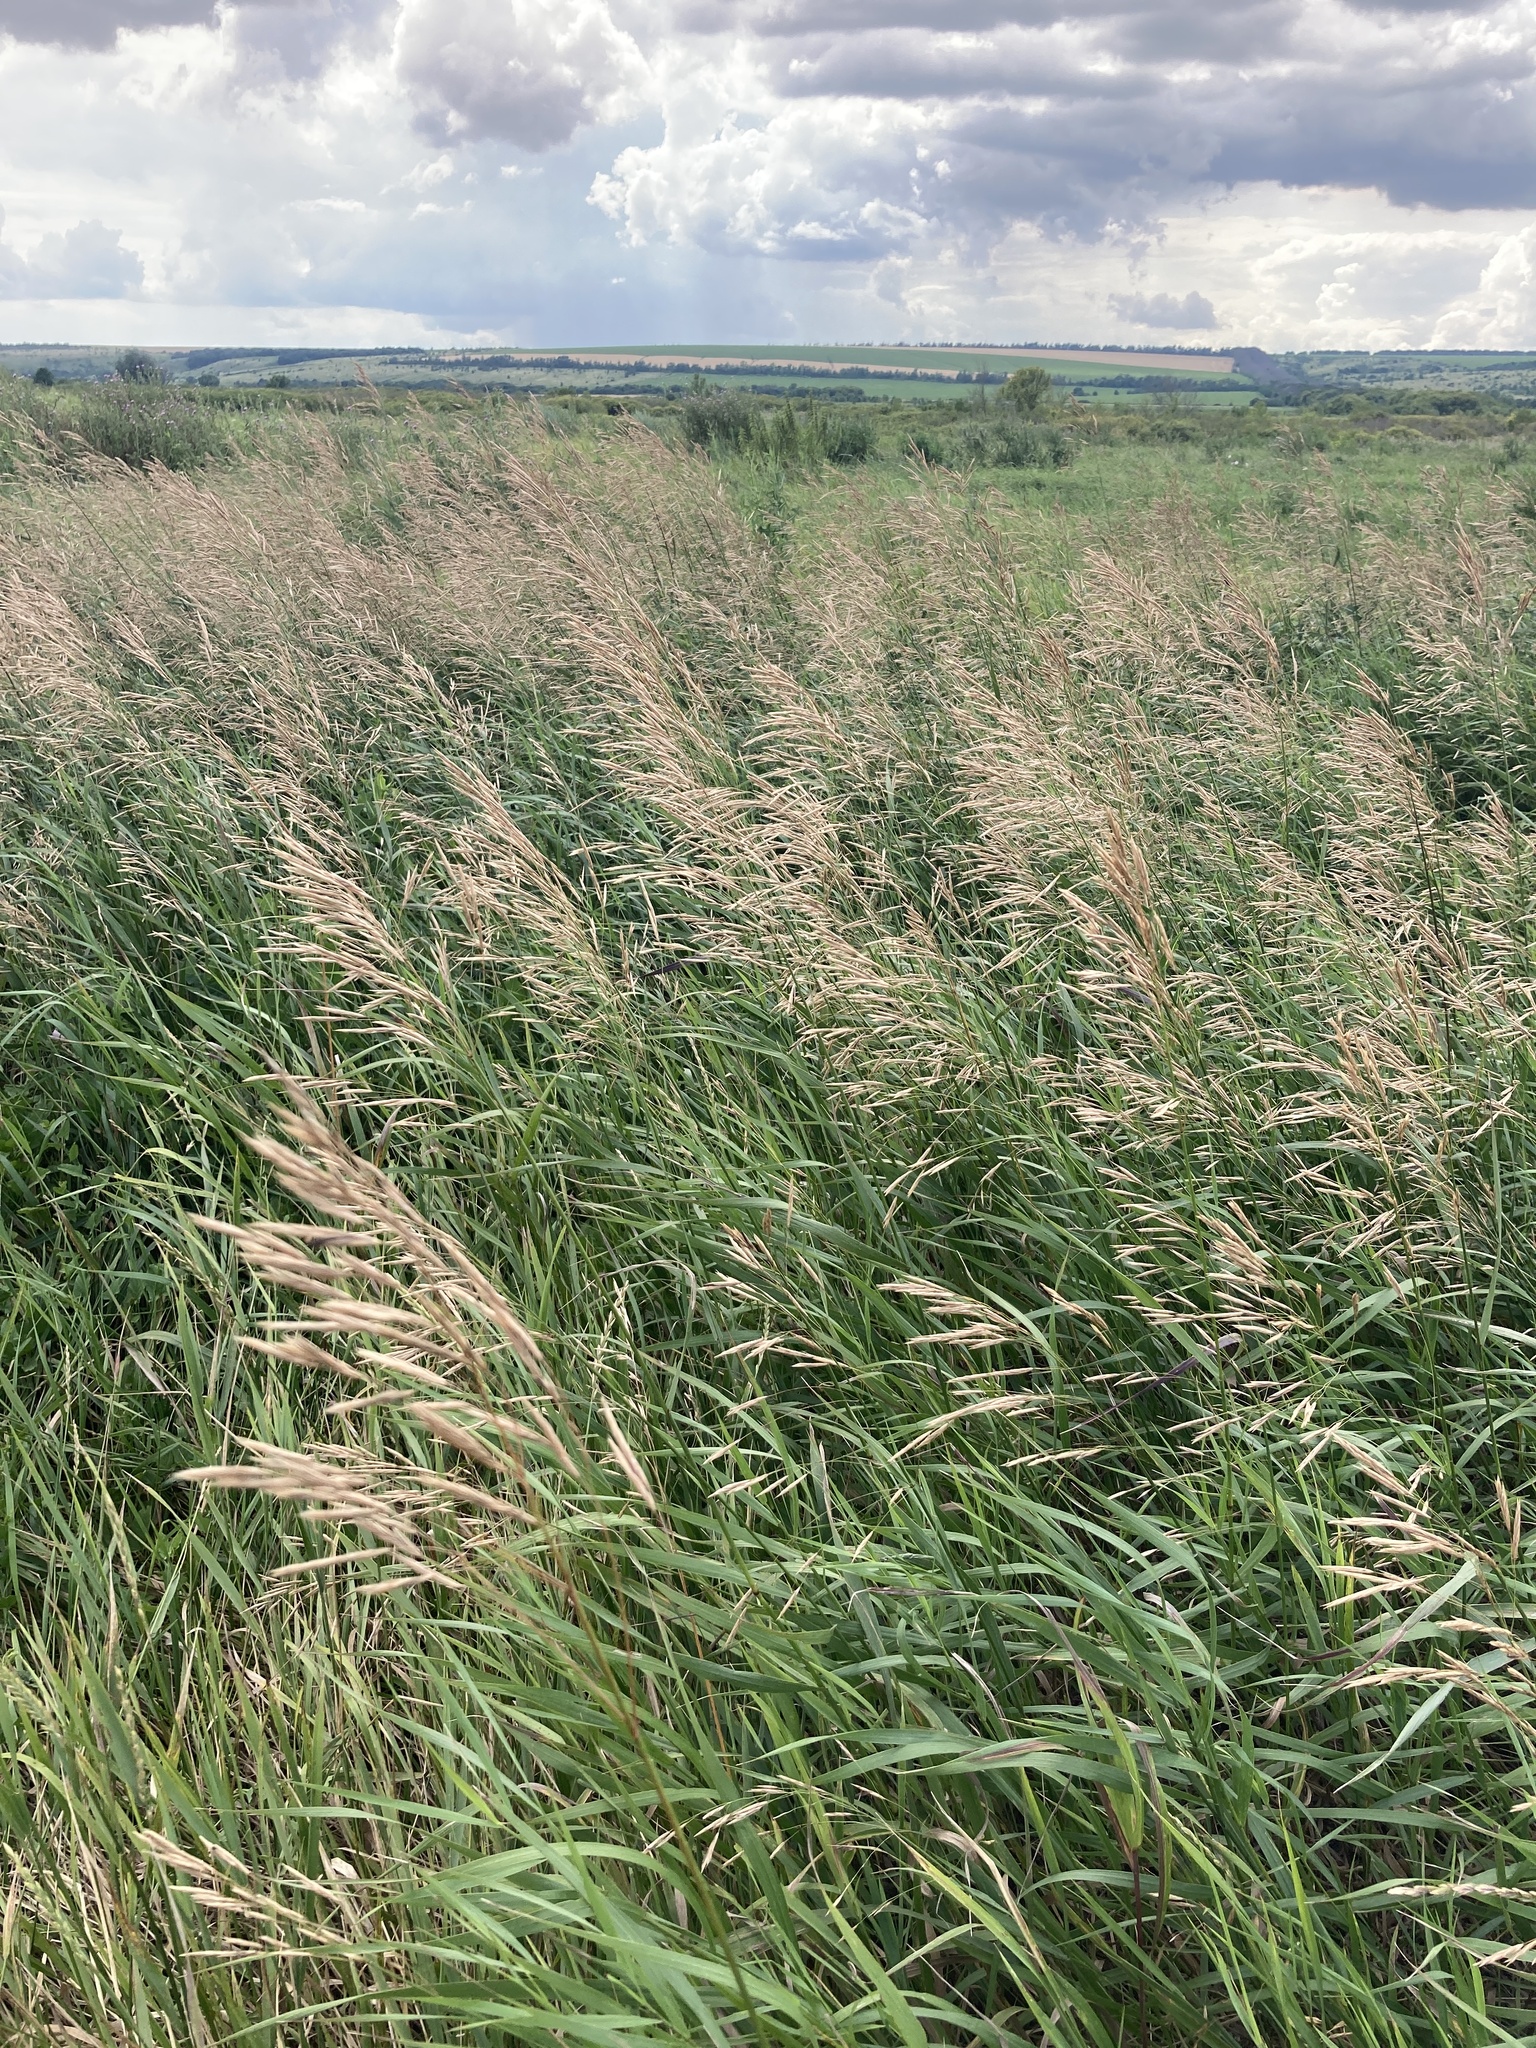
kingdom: Plantae
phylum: Tracheophyta
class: Liliopsida
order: Poales
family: Poaceae
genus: Bromus
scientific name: Bromus inermis
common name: Smooth brome
